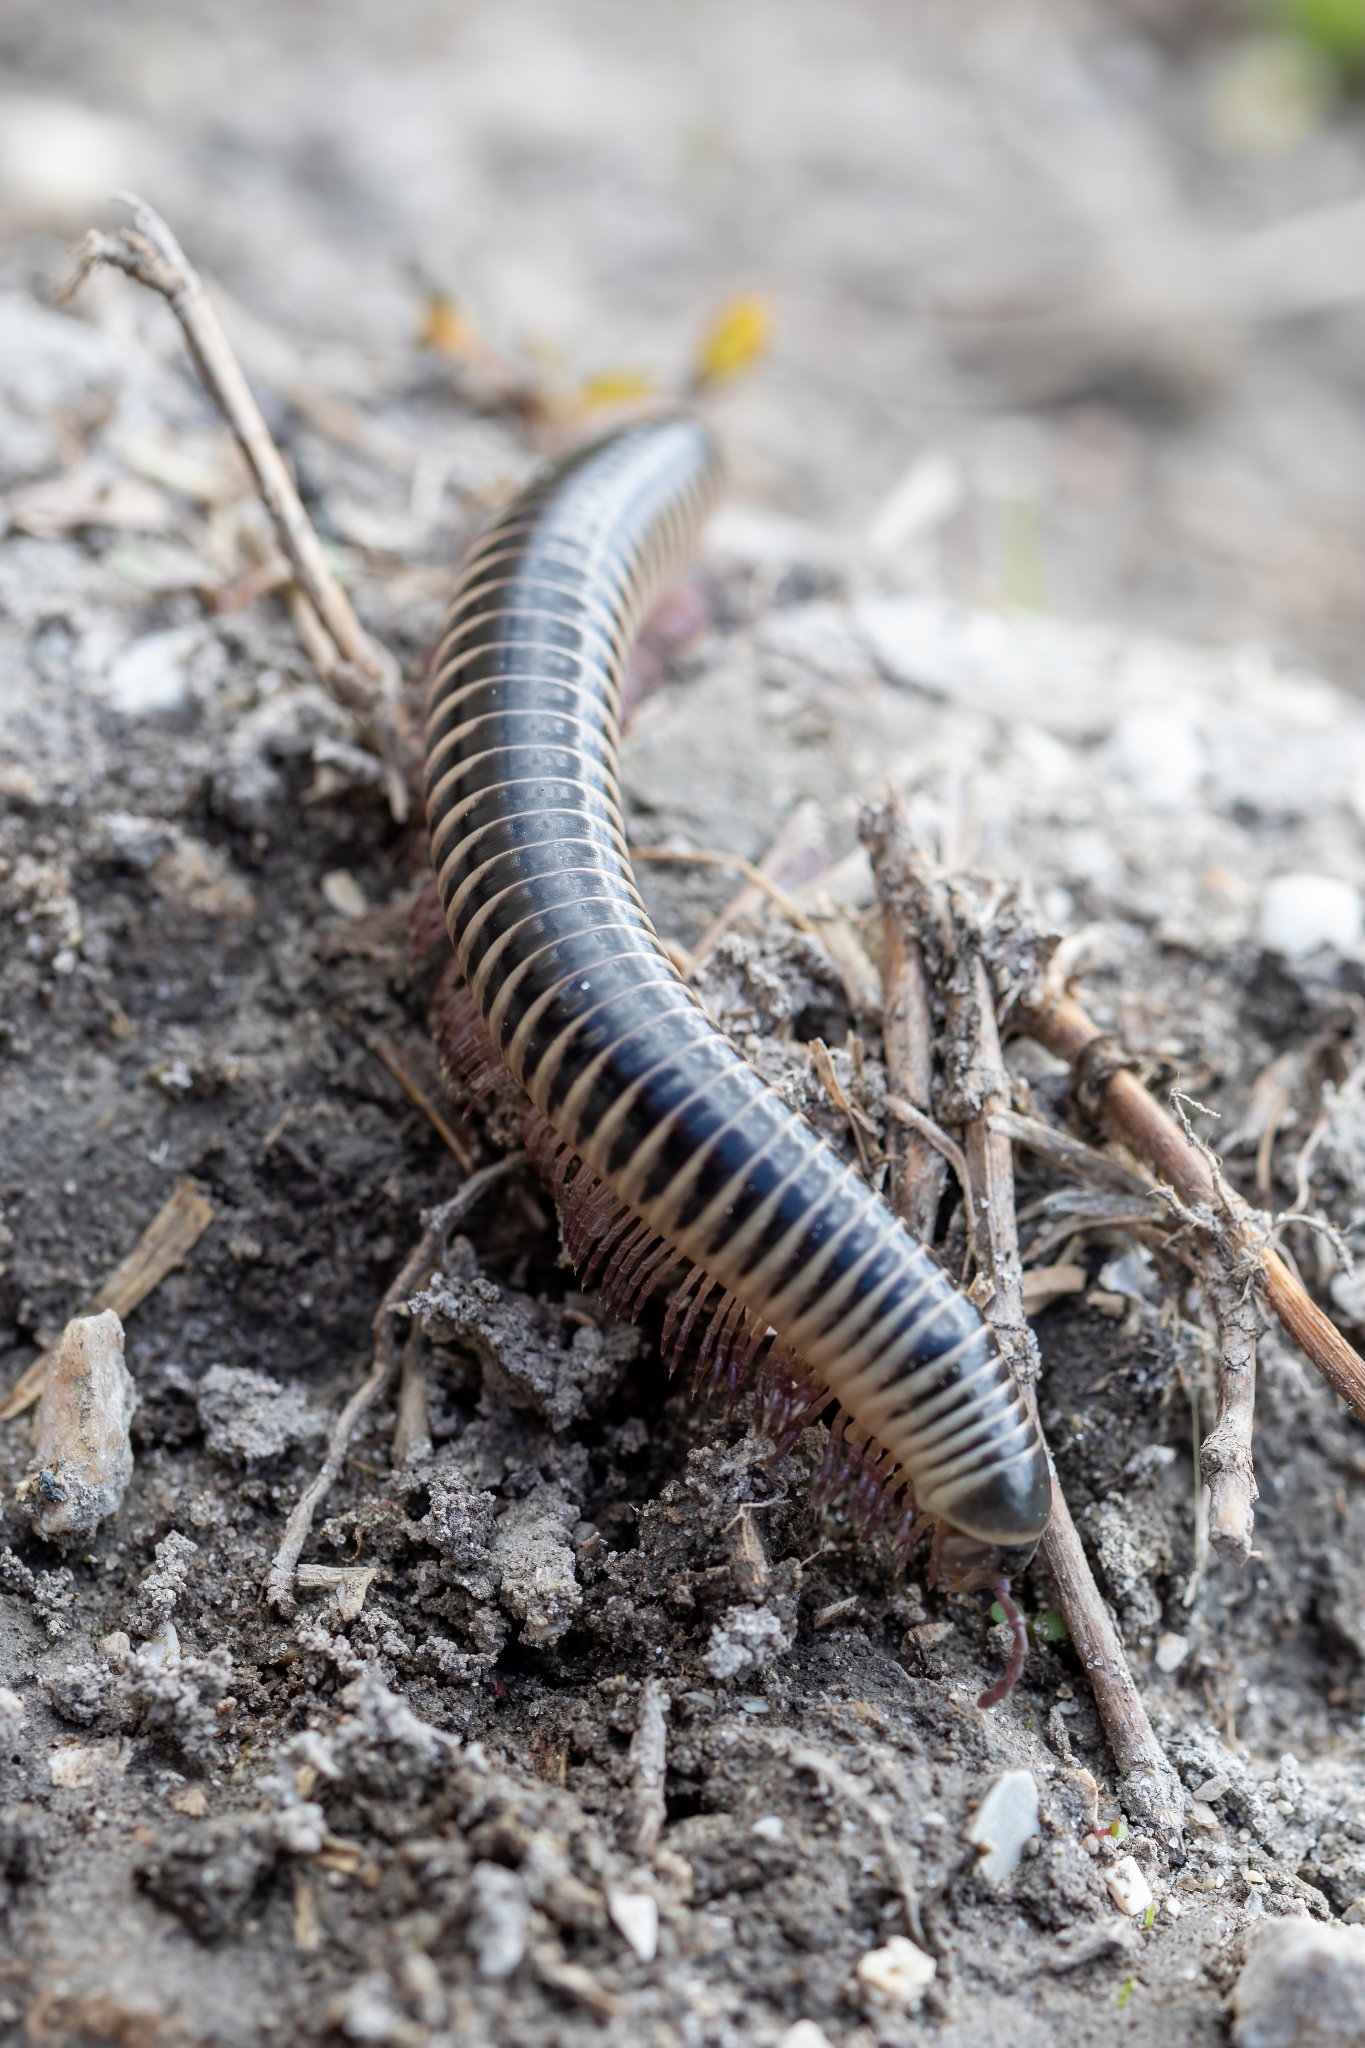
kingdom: Animalia
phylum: Arthropoda
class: Diplopoda
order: Spirobolida
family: Spirobolidae
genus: Chicobolus
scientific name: Chicobolus spinigerus
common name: Florida ivory millipede
